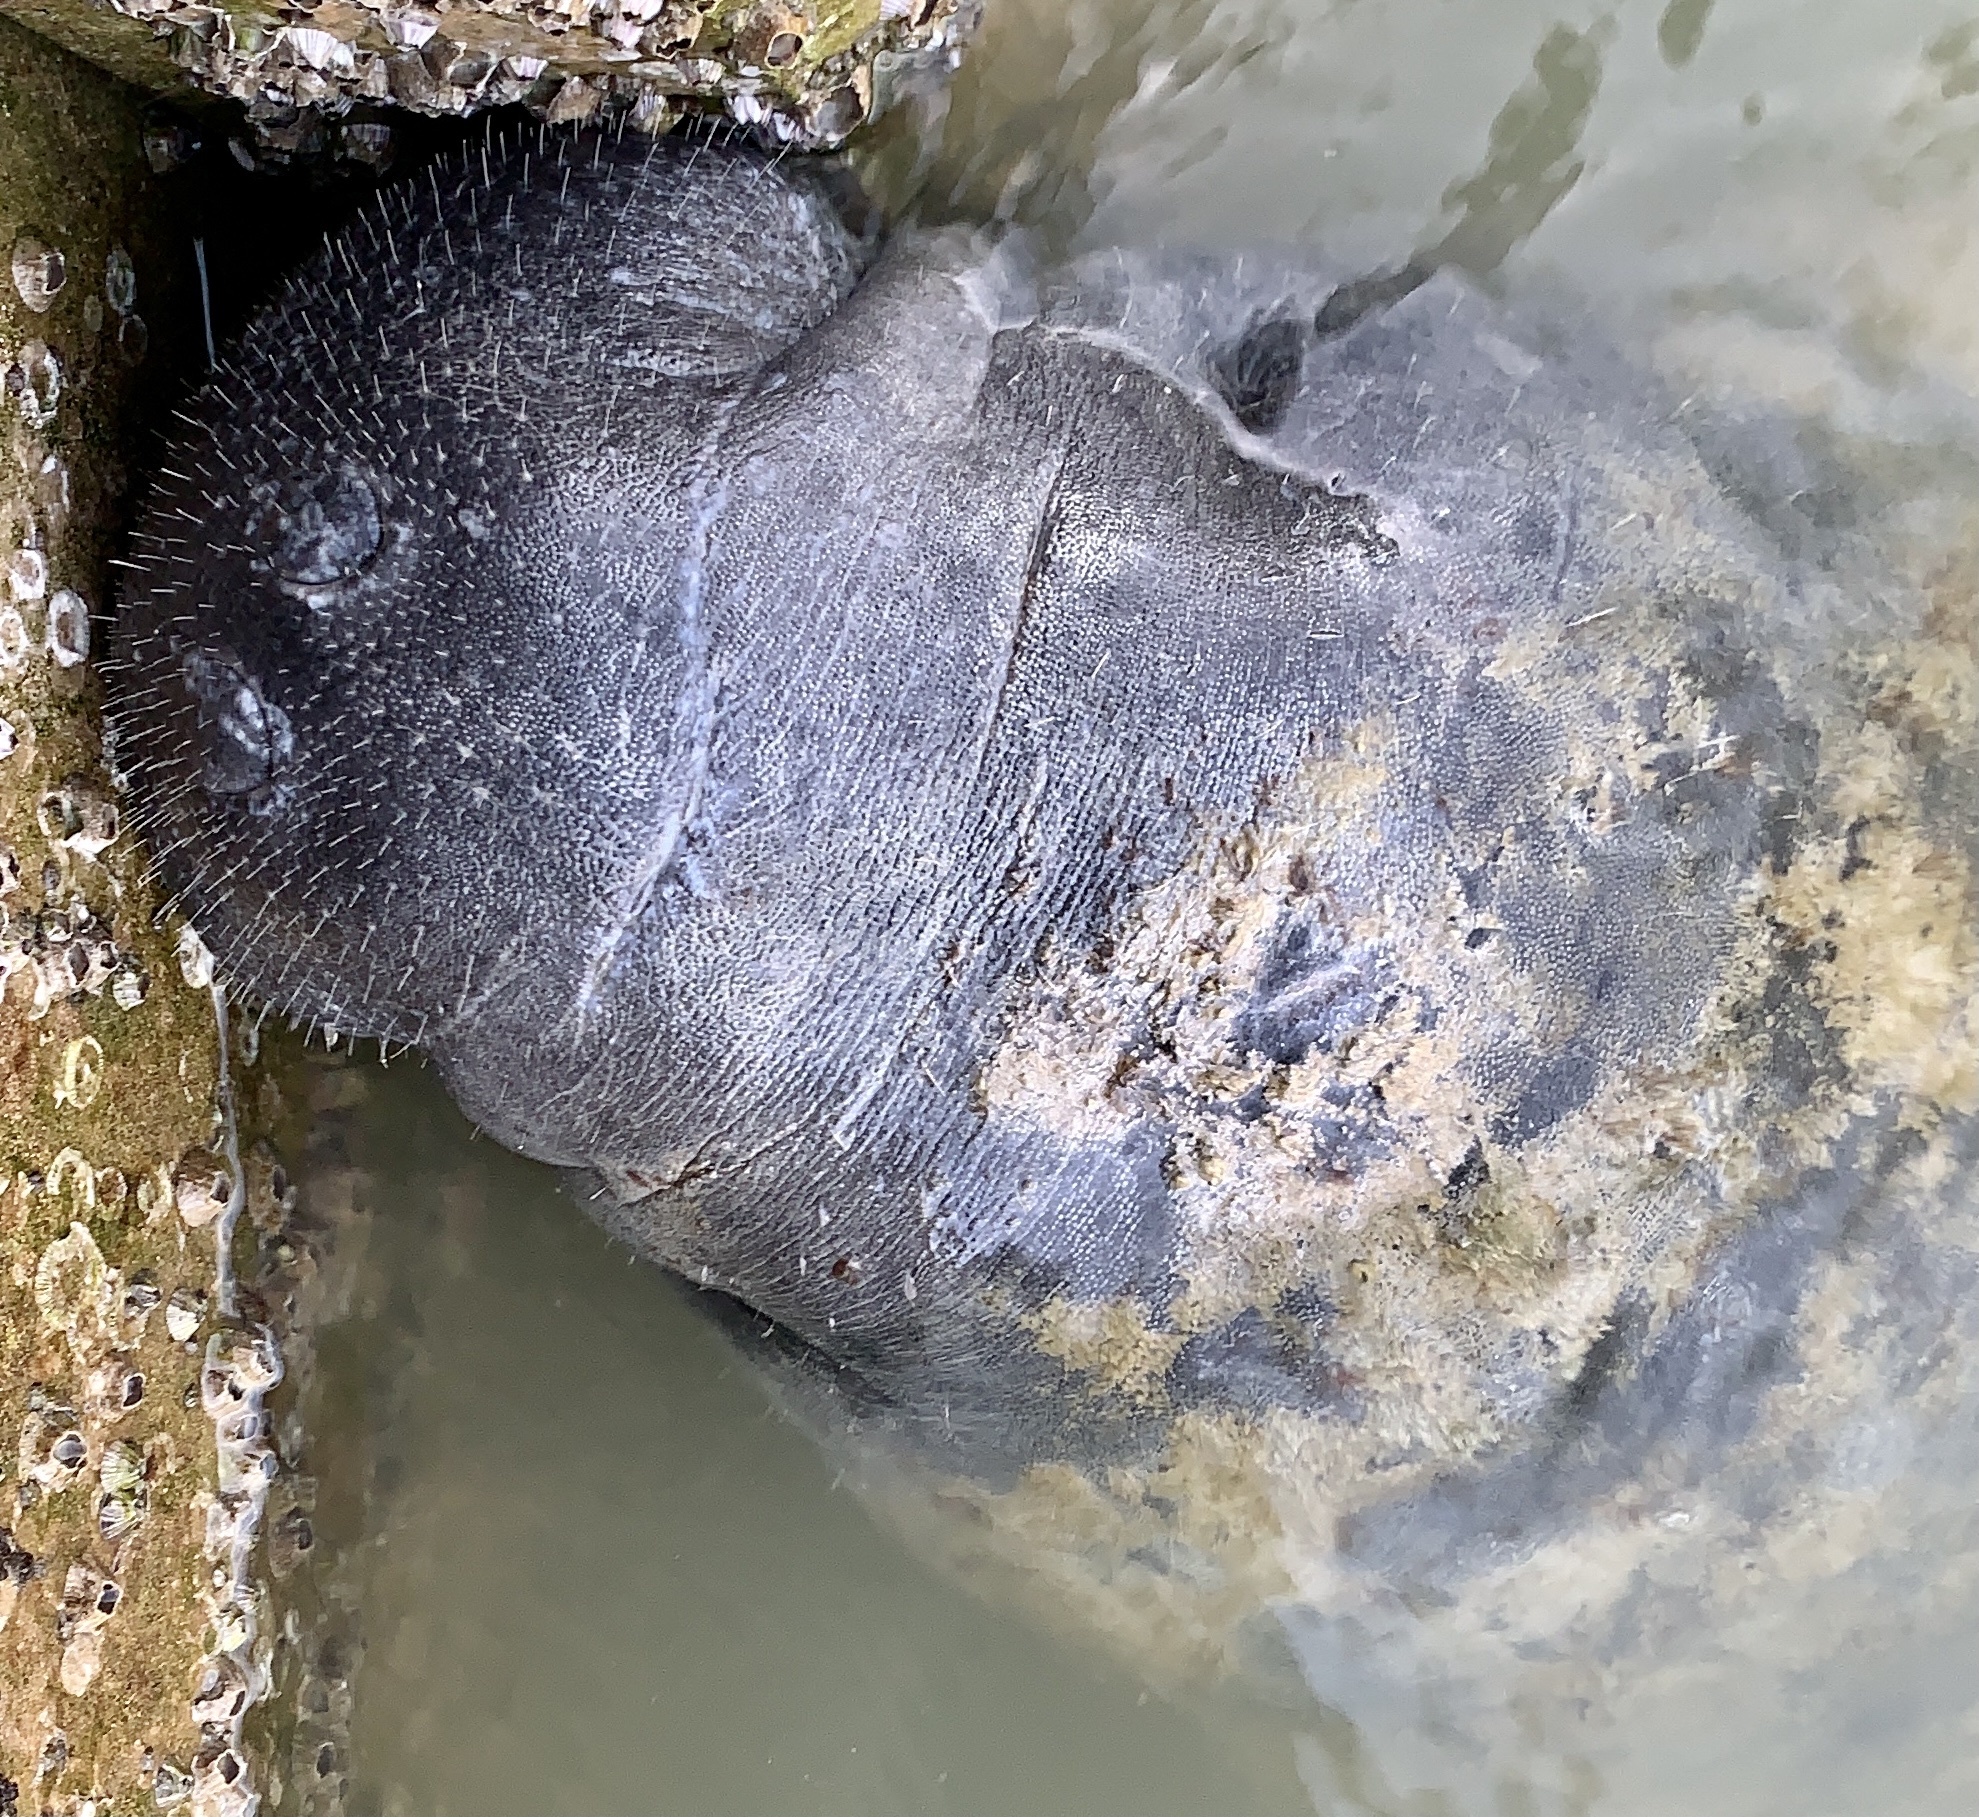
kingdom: Animalia
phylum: Chordata
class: Mammalia
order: Sirenia
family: Trichechidae
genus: Trichechus
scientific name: Trichechus manatus
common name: West indian manatee
